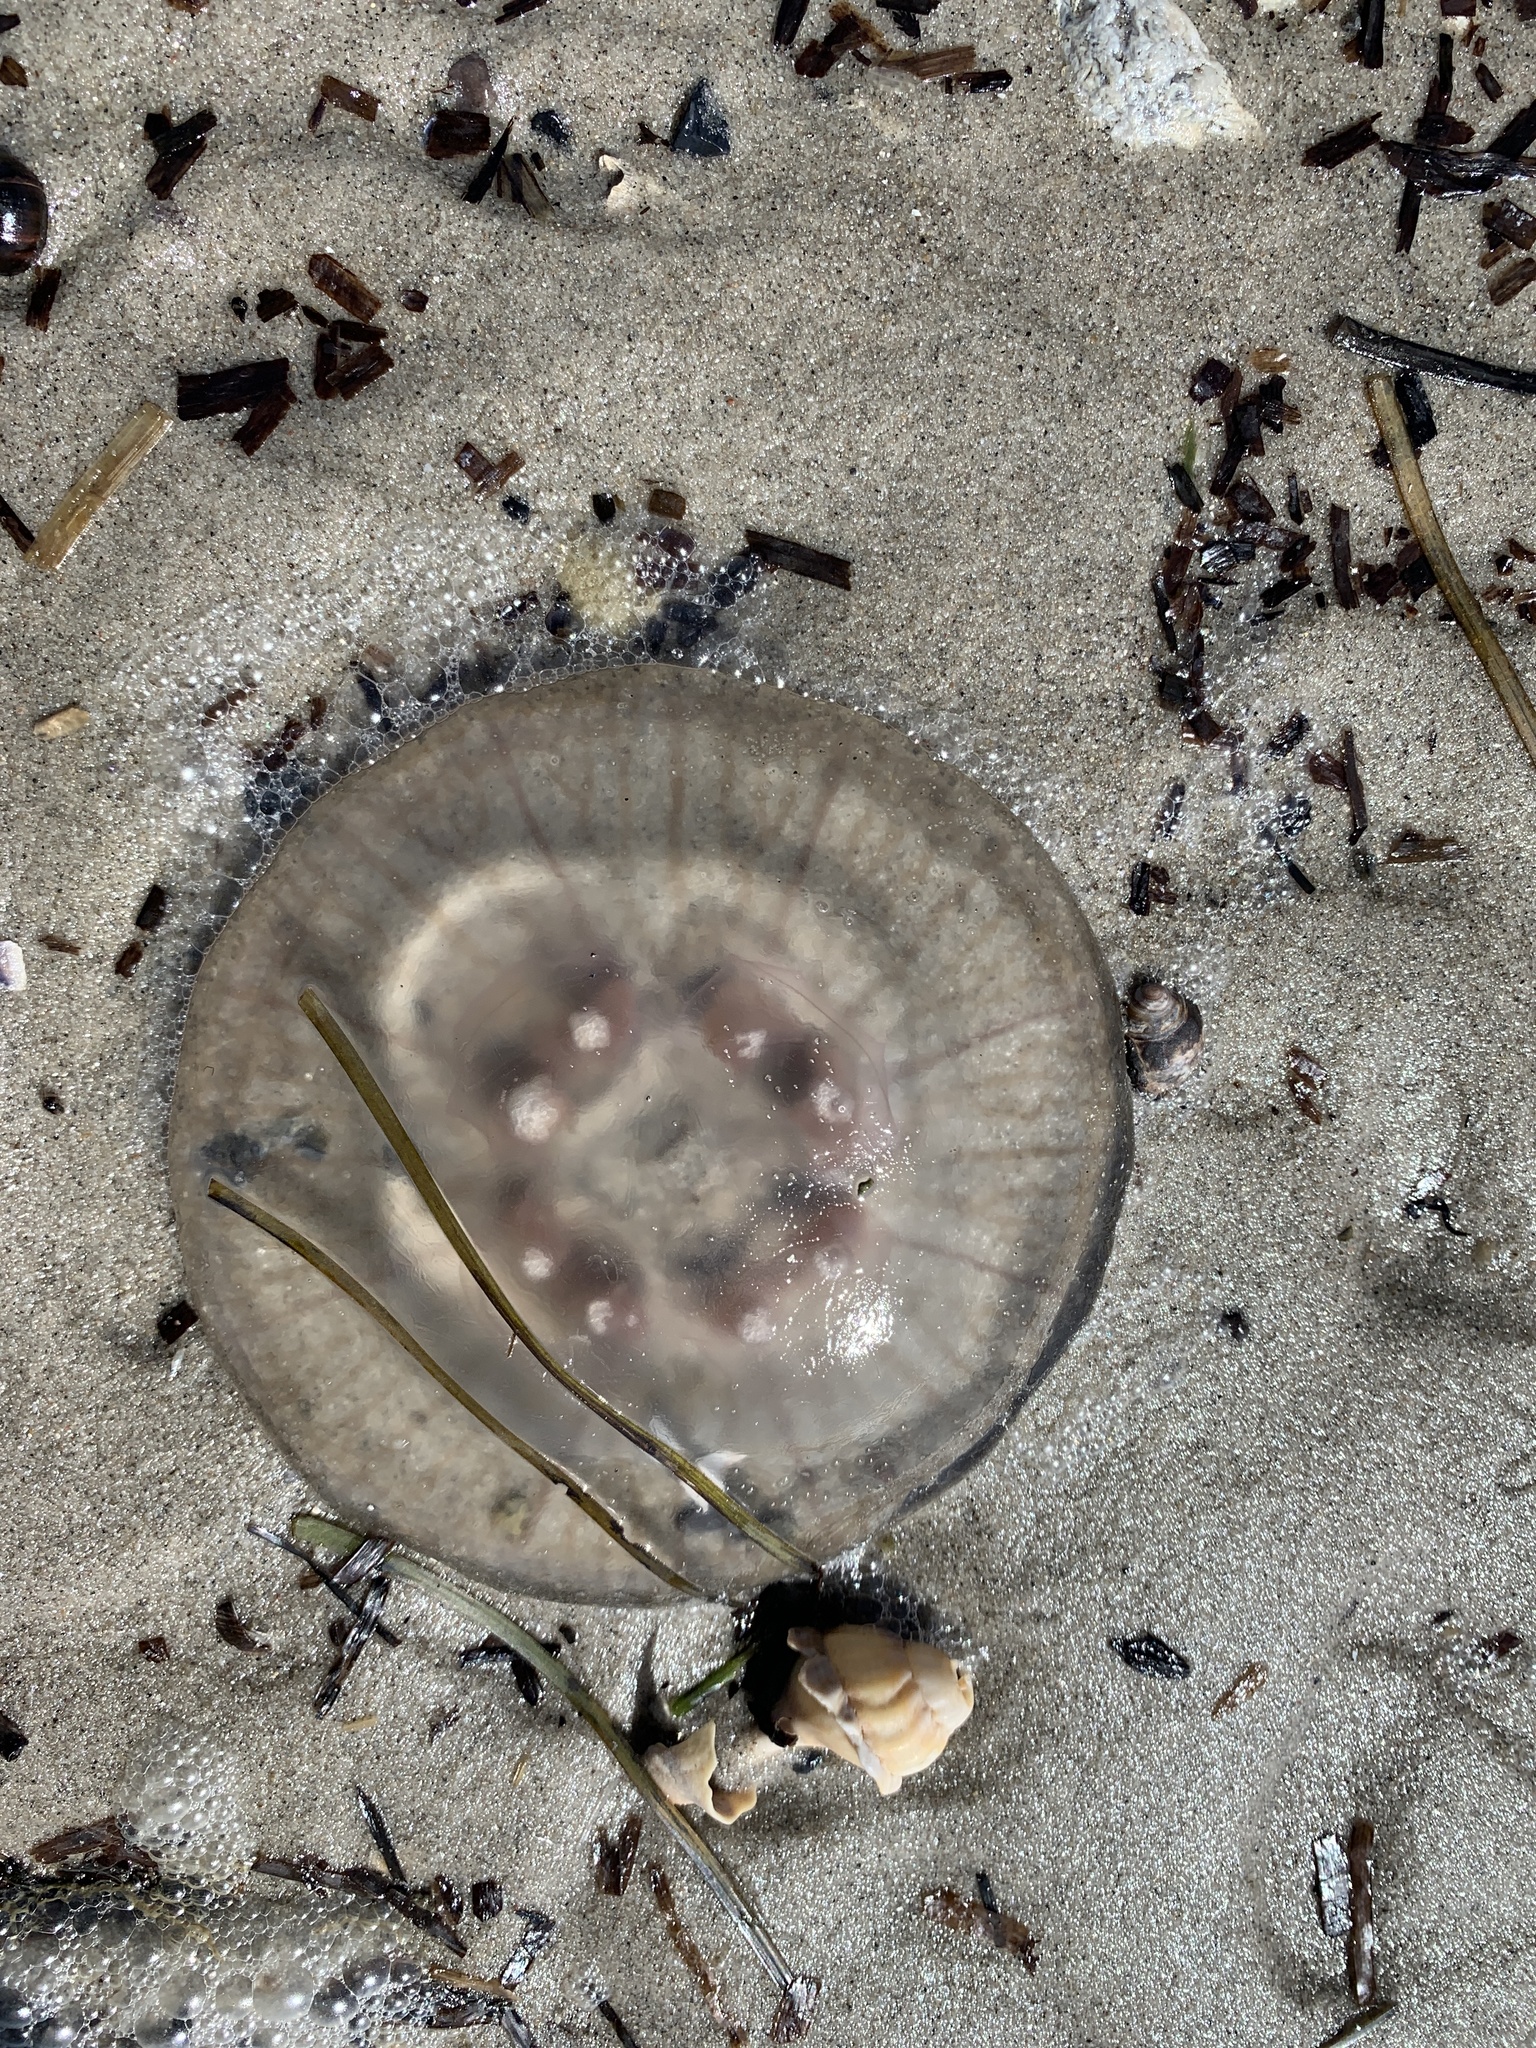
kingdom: Animalia
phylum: Cnidaria
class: Scyphozoa
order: Semaeostomeae
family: Ulmaridae
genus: Aurelia
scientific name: Aurelia aurita
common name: Moon jellyfish
